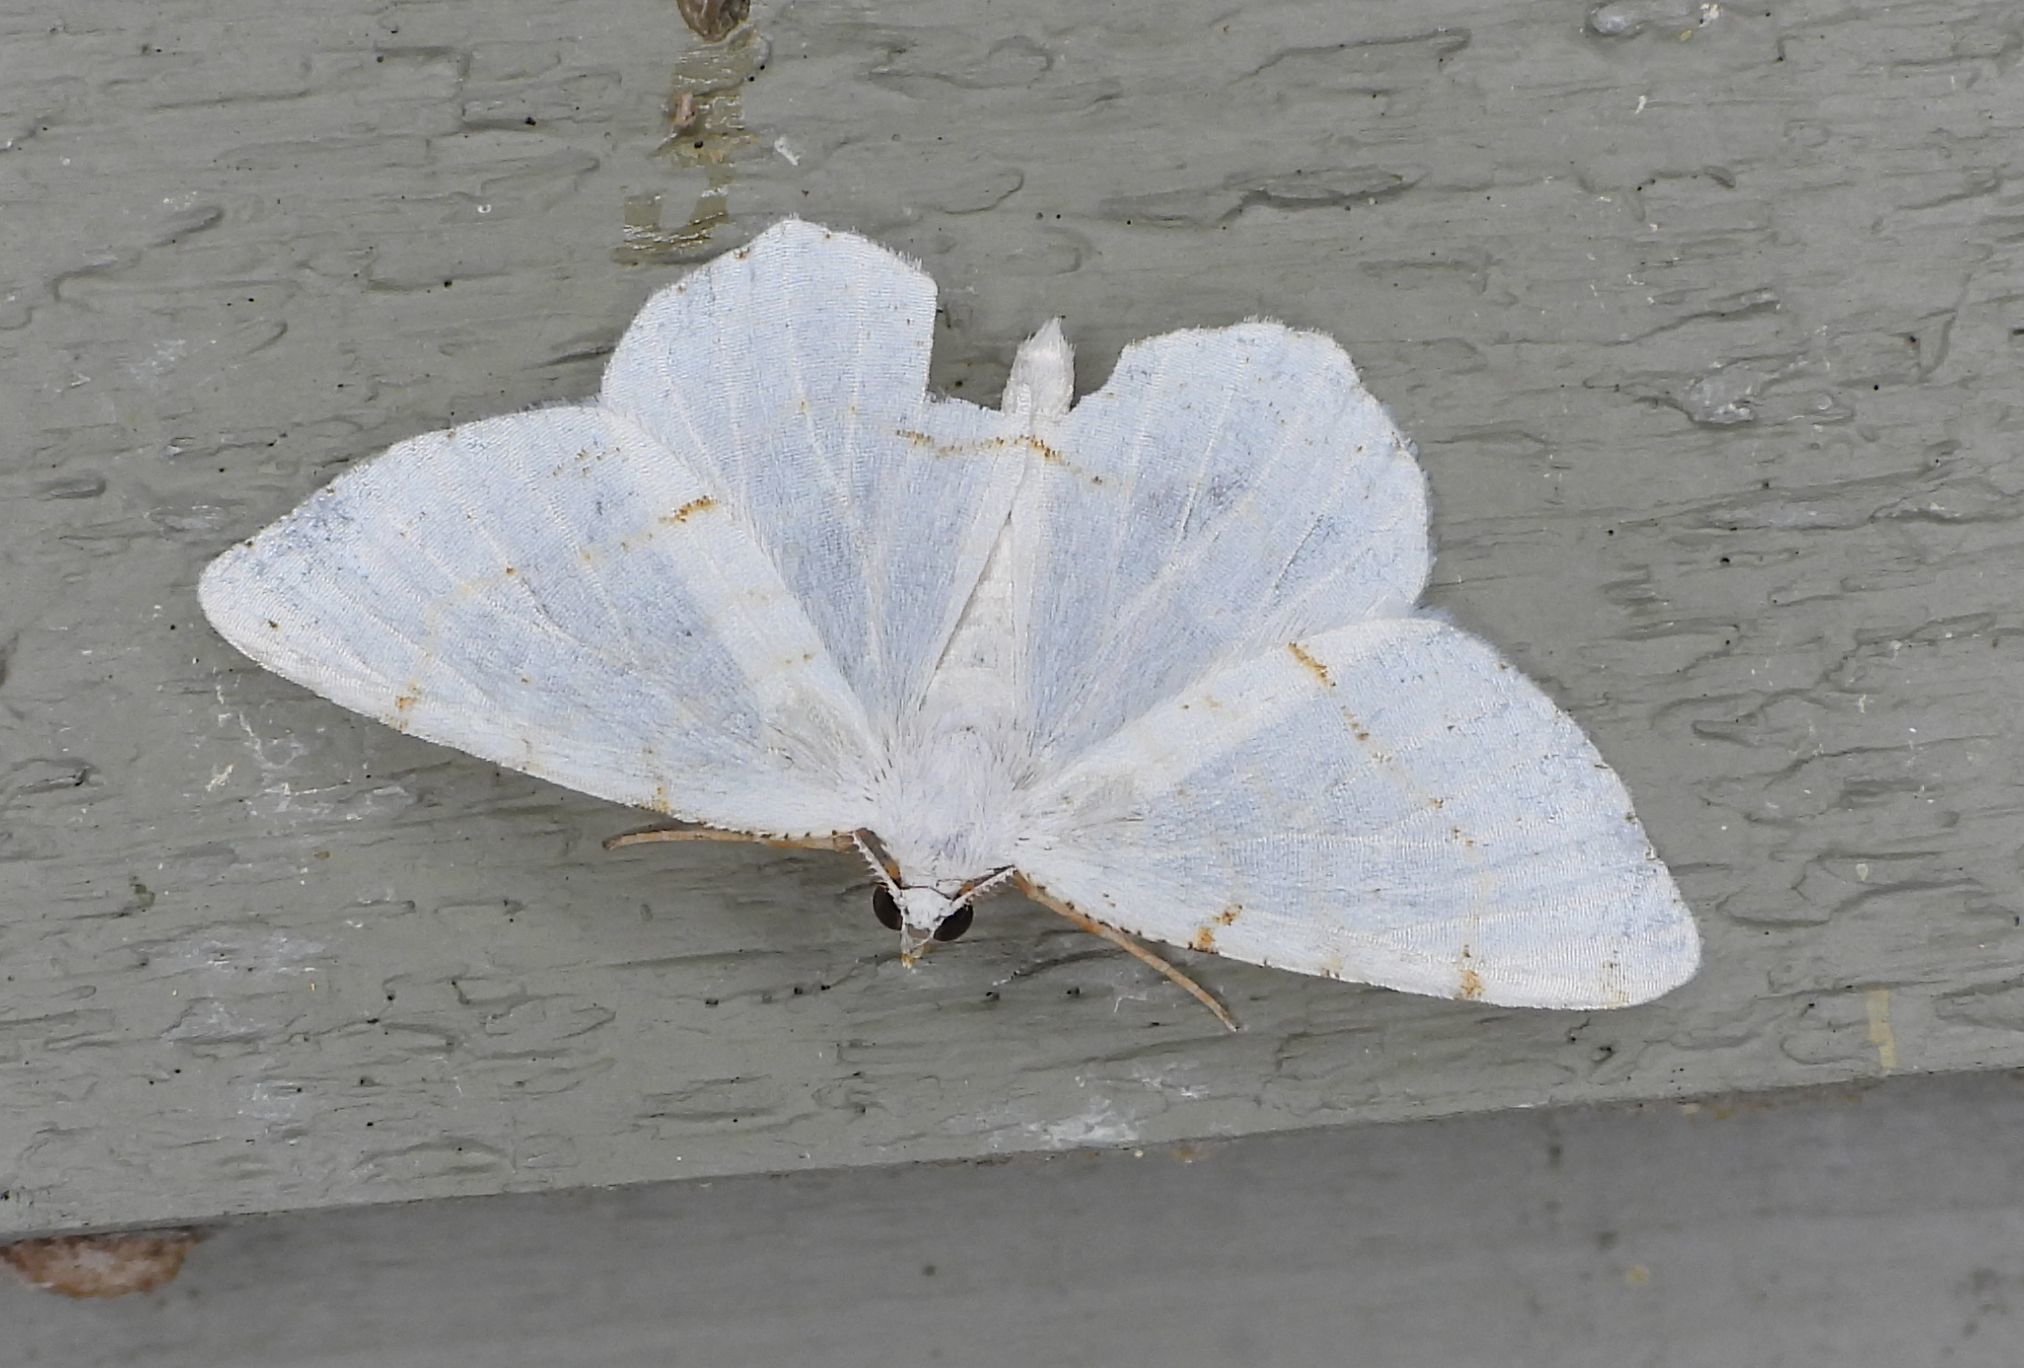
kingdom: Animalia
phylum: Arthropoda
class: Insecta
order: Lepidoptera
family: Geometridae
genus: Macaria
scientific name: Macaria pustularia
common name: Lesser maple spanworm moth
